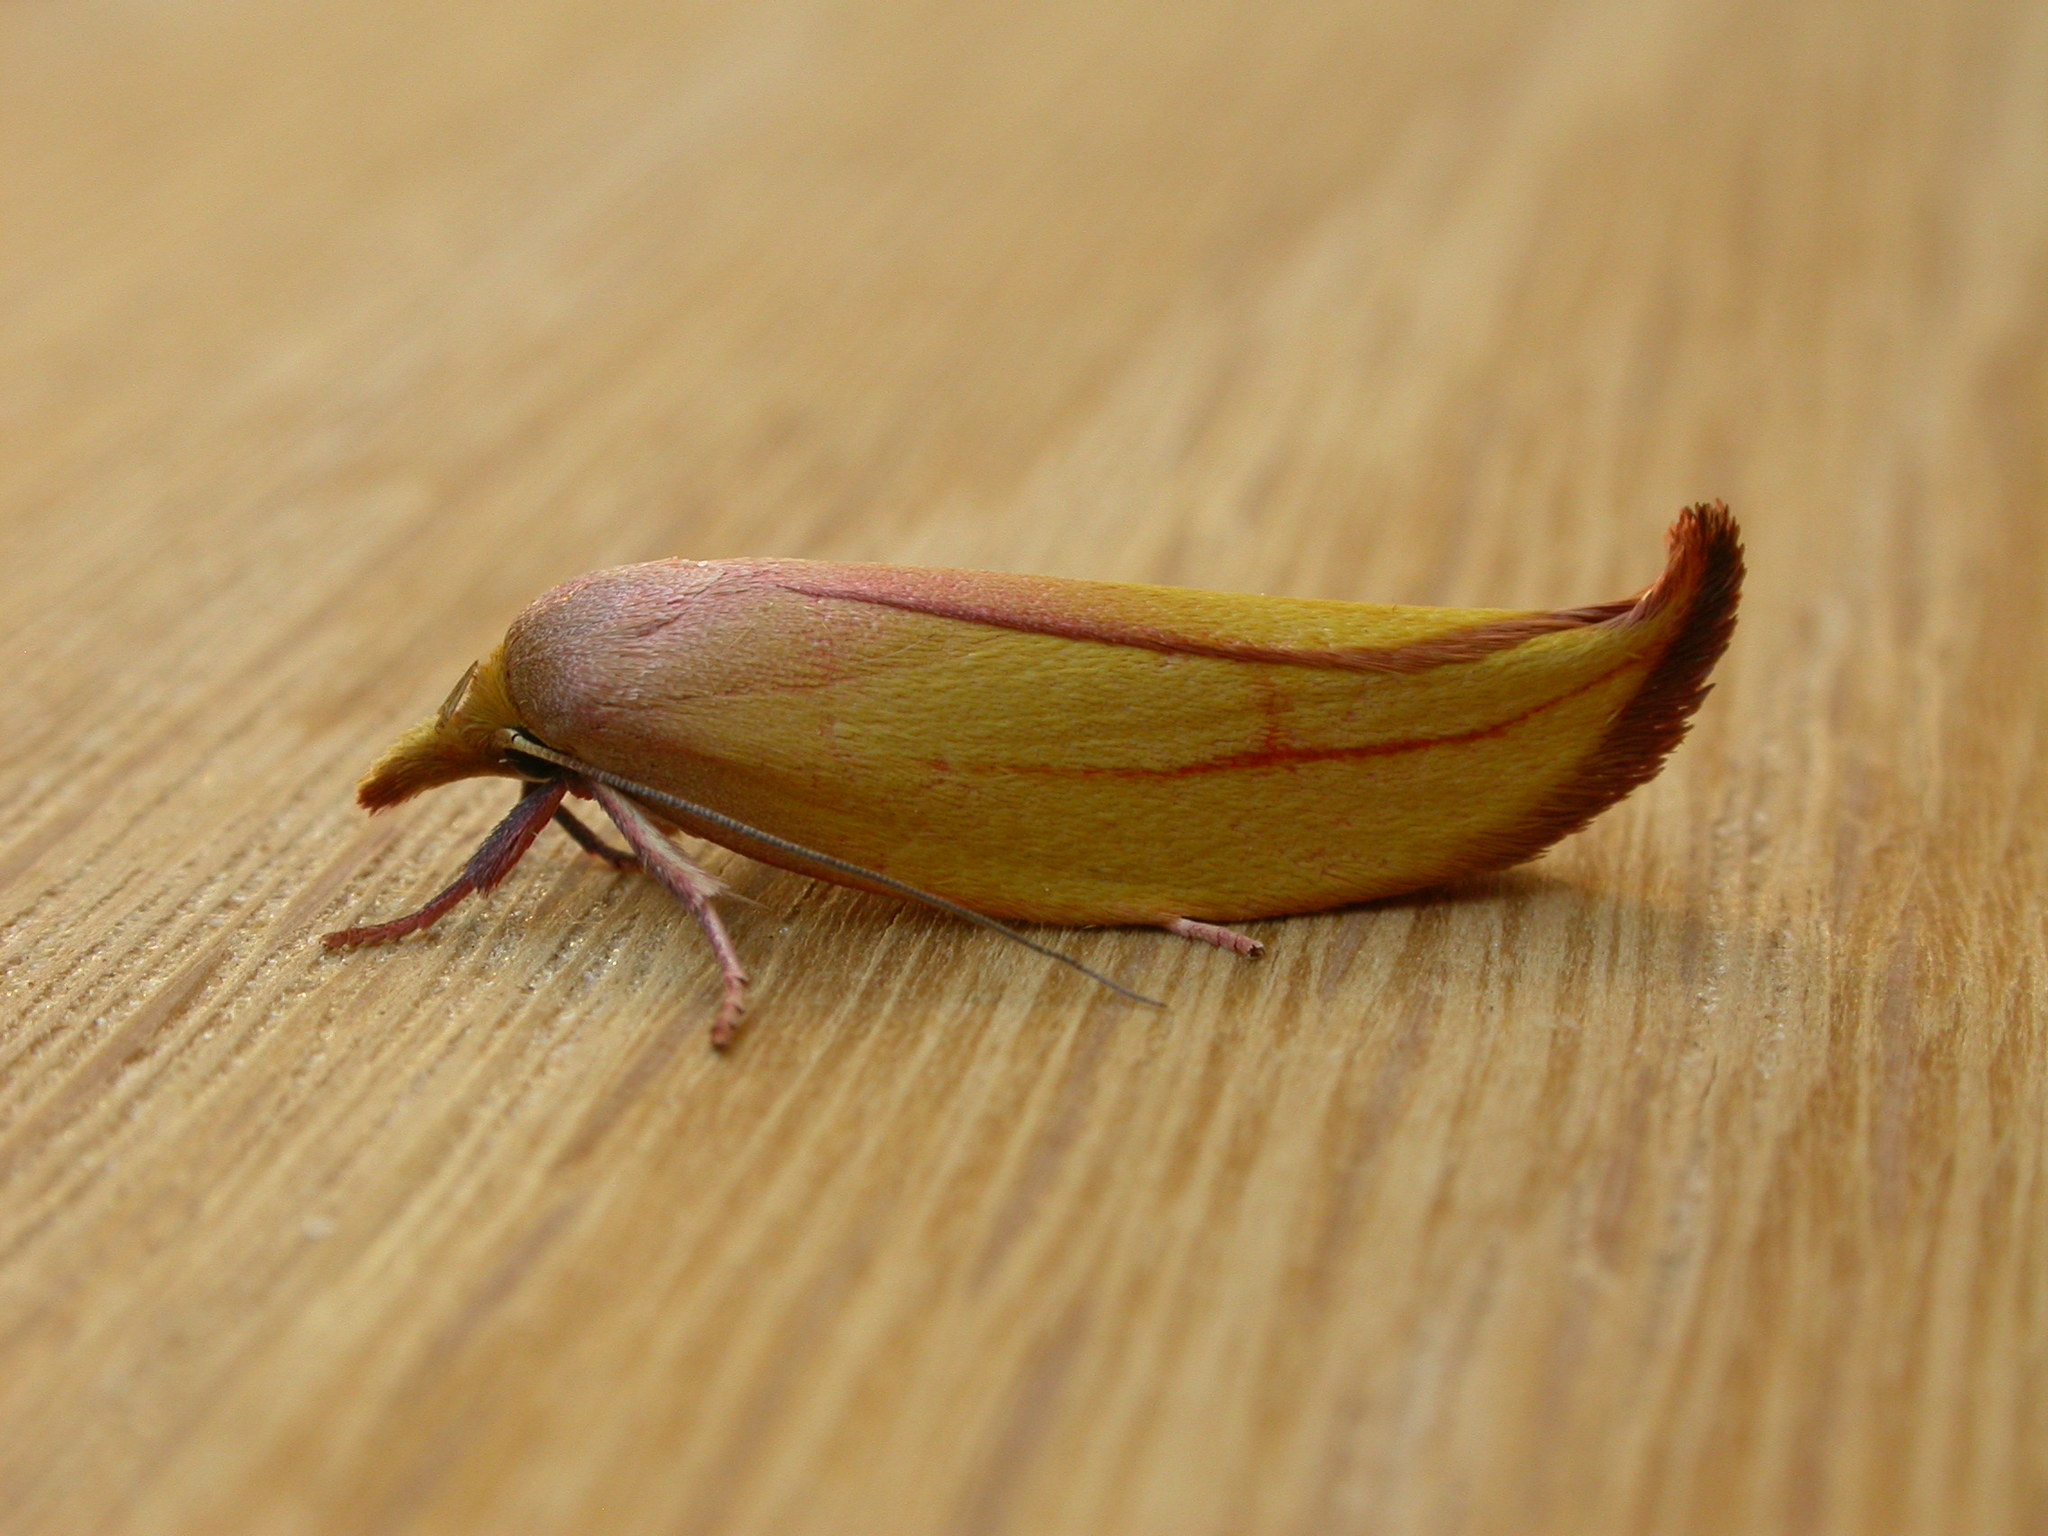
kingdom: Animalia
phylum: Arthropoda
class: Insecta
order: Lepidoptera
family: Oecophoridae
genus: Wingia
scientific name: Wingia aurata
